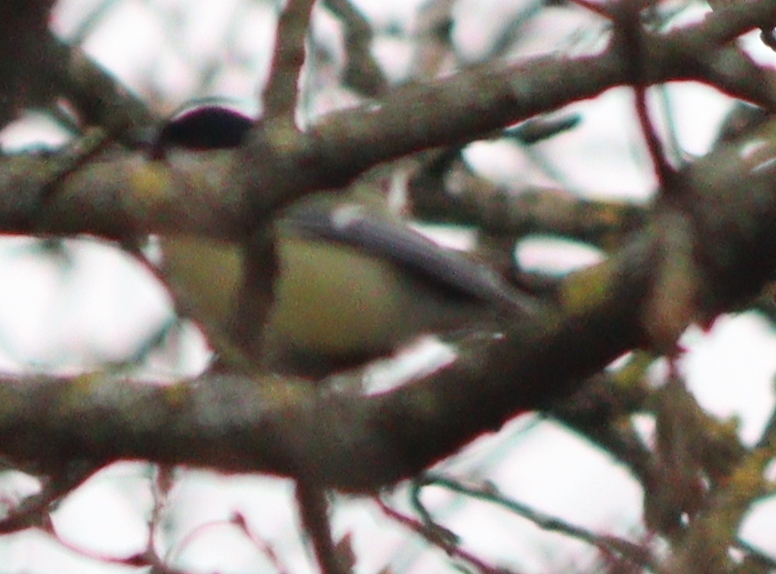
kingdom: Animalia
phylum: Chordata
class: Aves
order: Passeriformes
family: Paridae
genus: Parus
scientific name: Parus major
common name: Great tit
